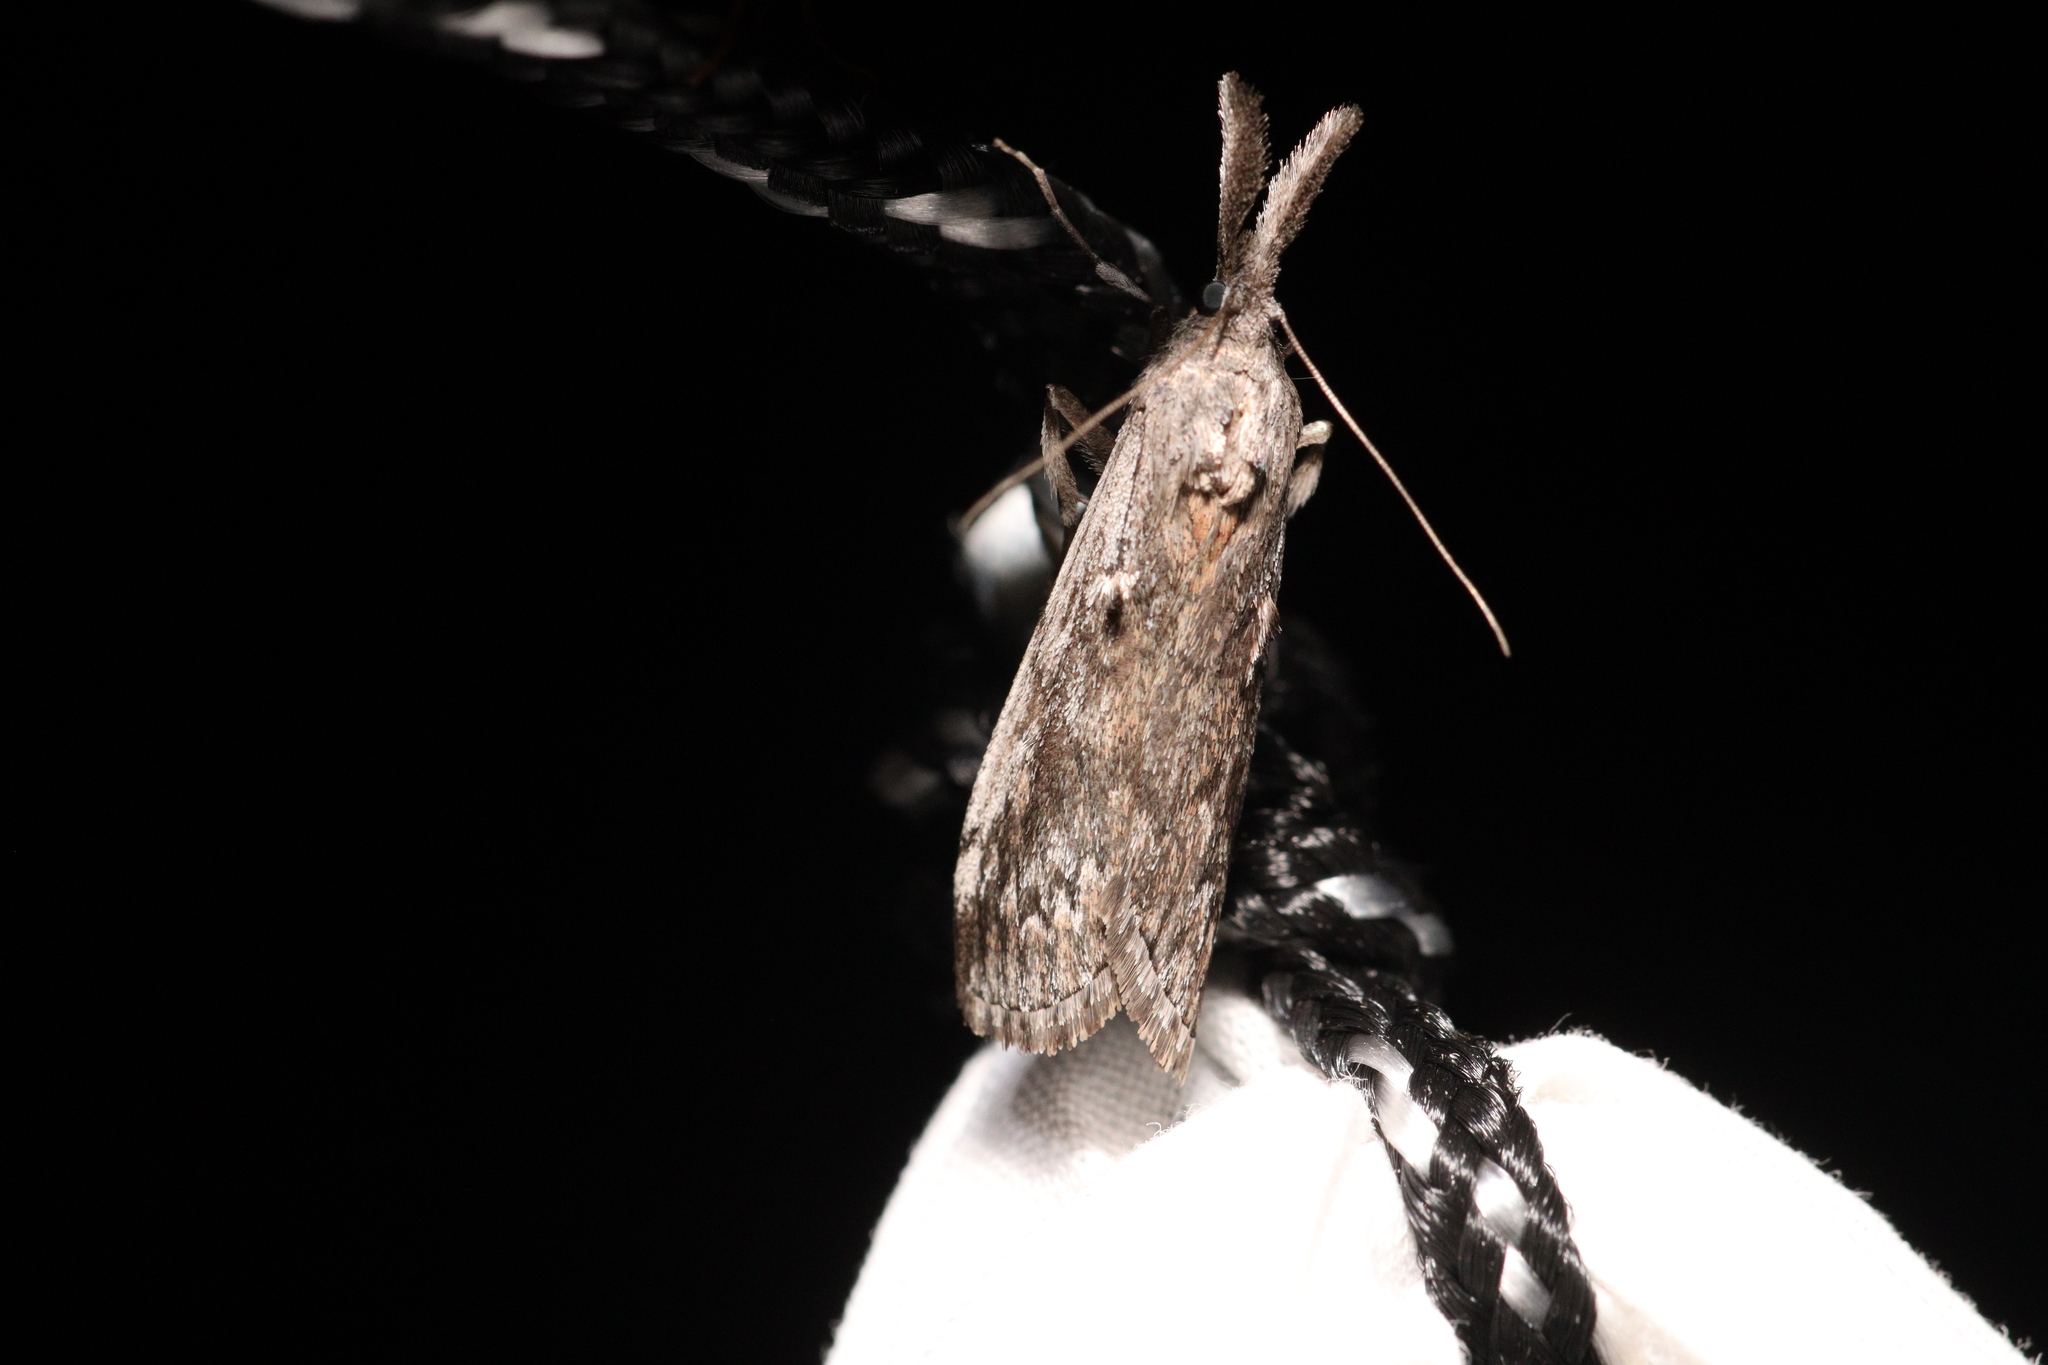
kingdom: Animalia
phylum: Arthropoda
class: Insecta
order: Lepidoptera
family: Pyralidae
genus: Austropaschia
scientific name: Austropaschia porrigens
